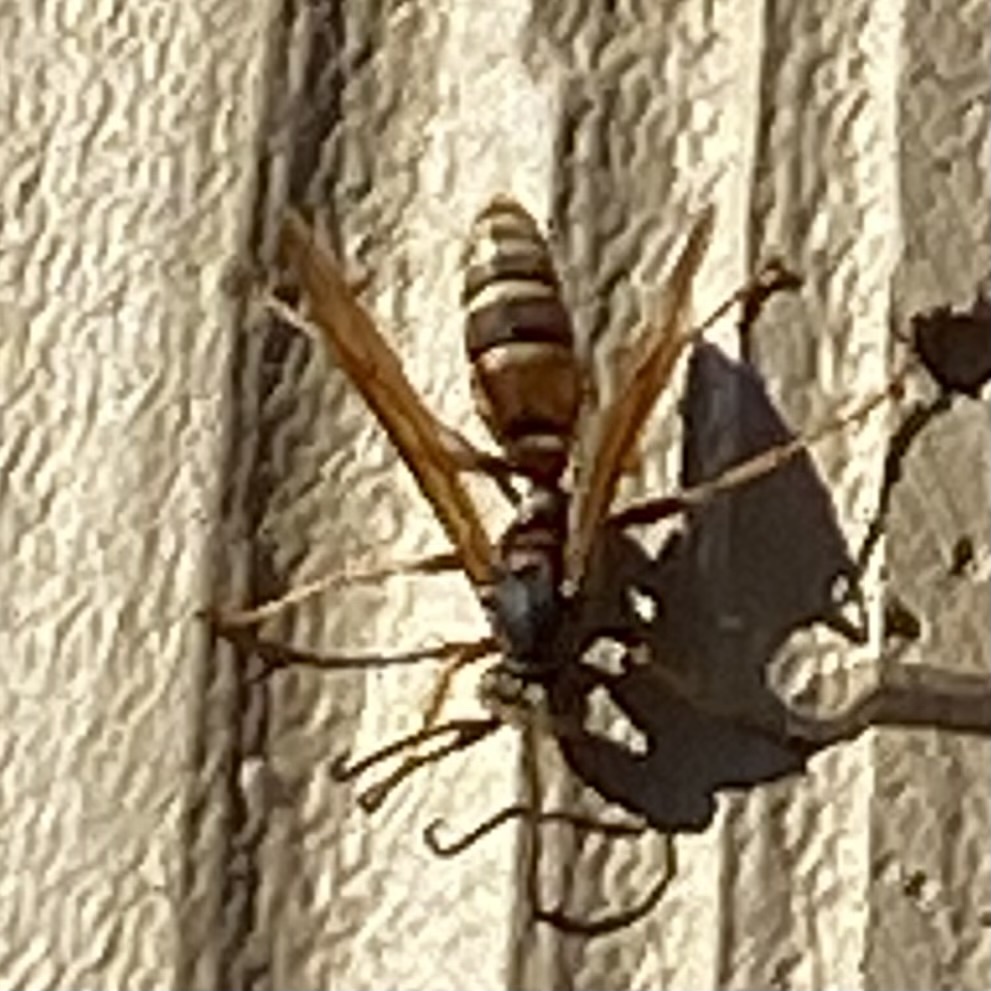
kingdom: Animalia
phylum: Arthropoda
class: Insecta
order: Hymenoptera
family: Eumenidae
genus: Polistes
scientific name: Polistes fuscatus
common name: Dark paper wasp
